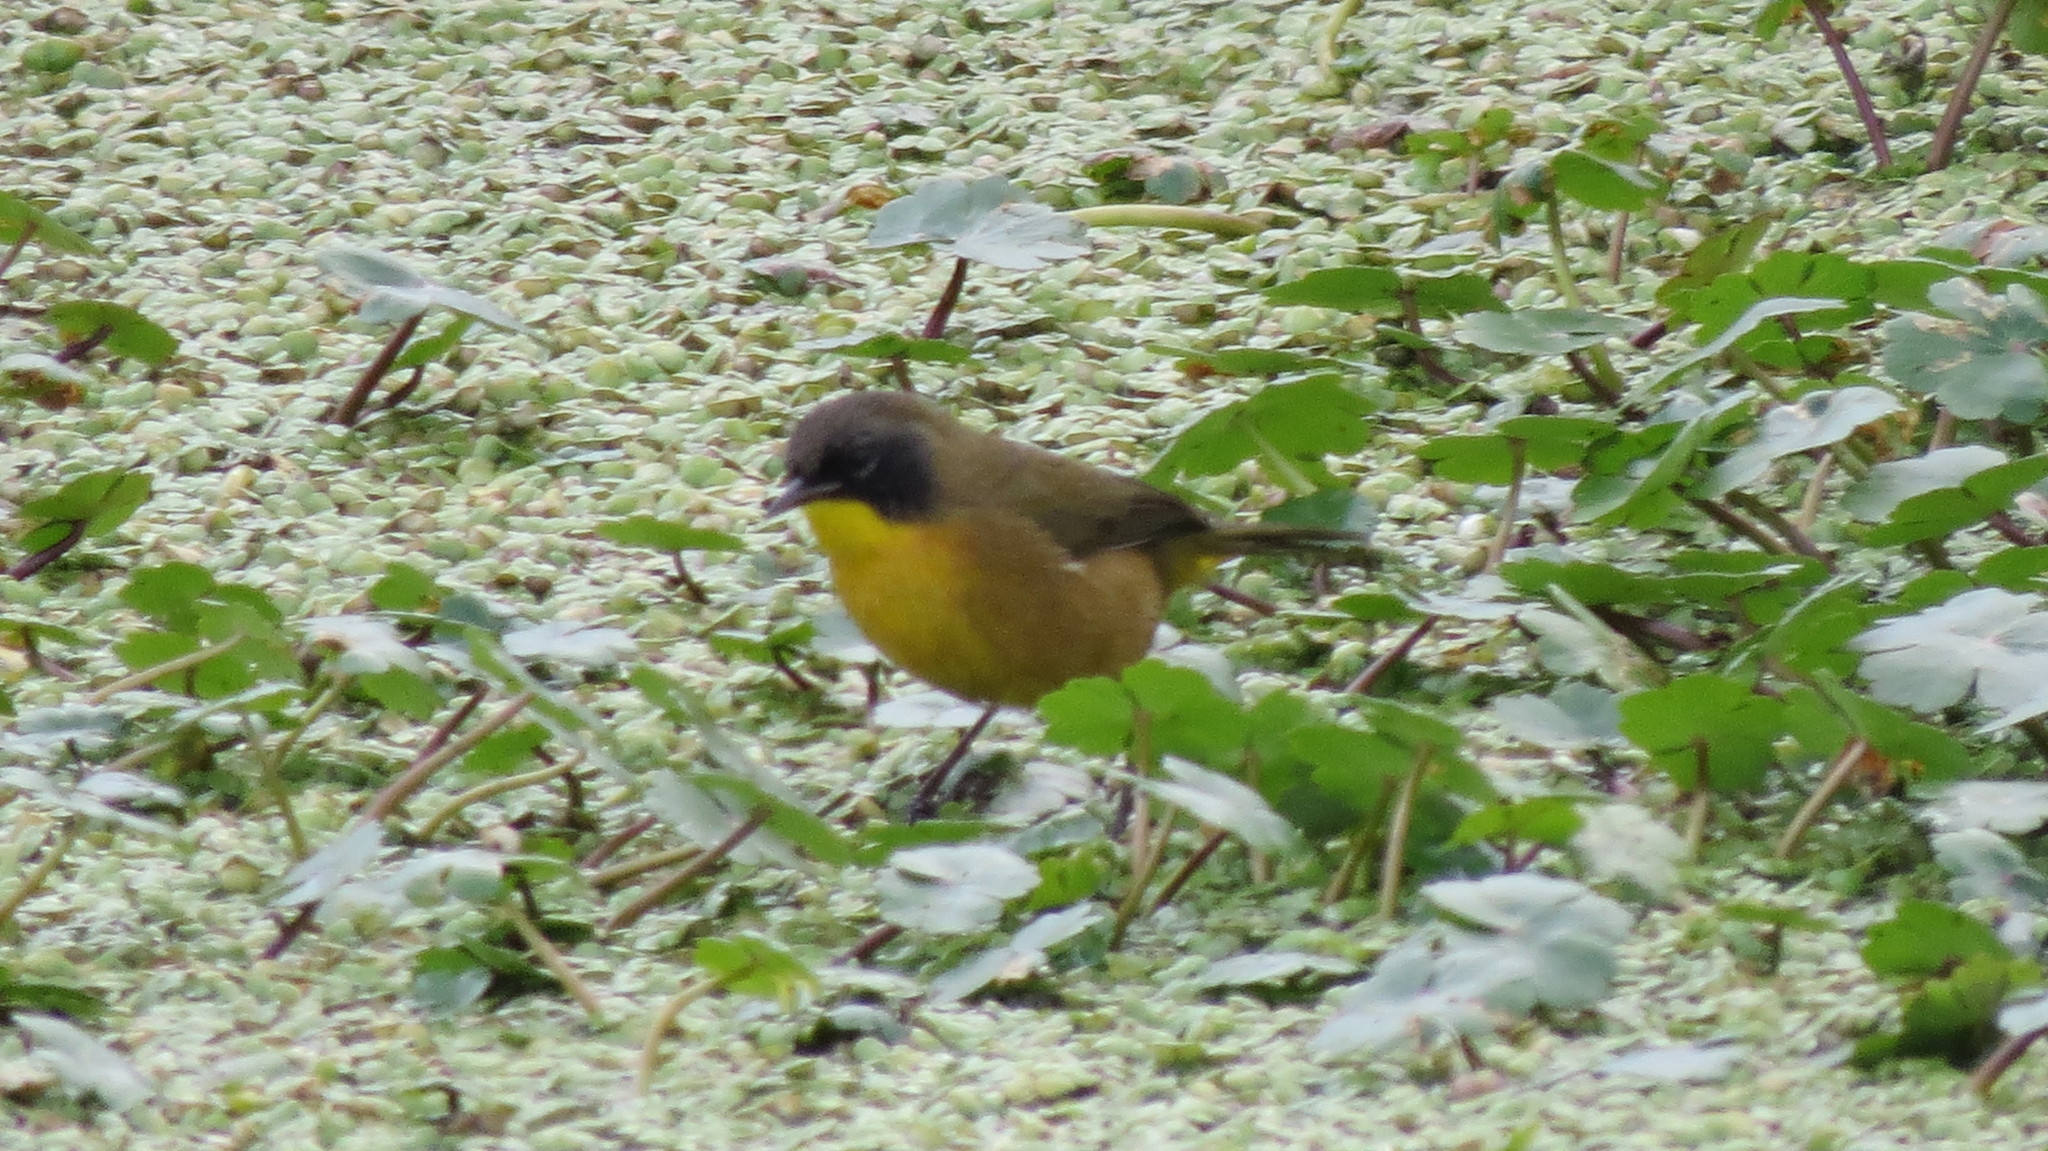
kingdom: Animalia
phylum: Chordata
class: Aves
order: Passeriformes
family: Parulidae
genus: Geothlypis
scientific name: Geothlypis speciosa
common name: Black-polled yellowthroat
